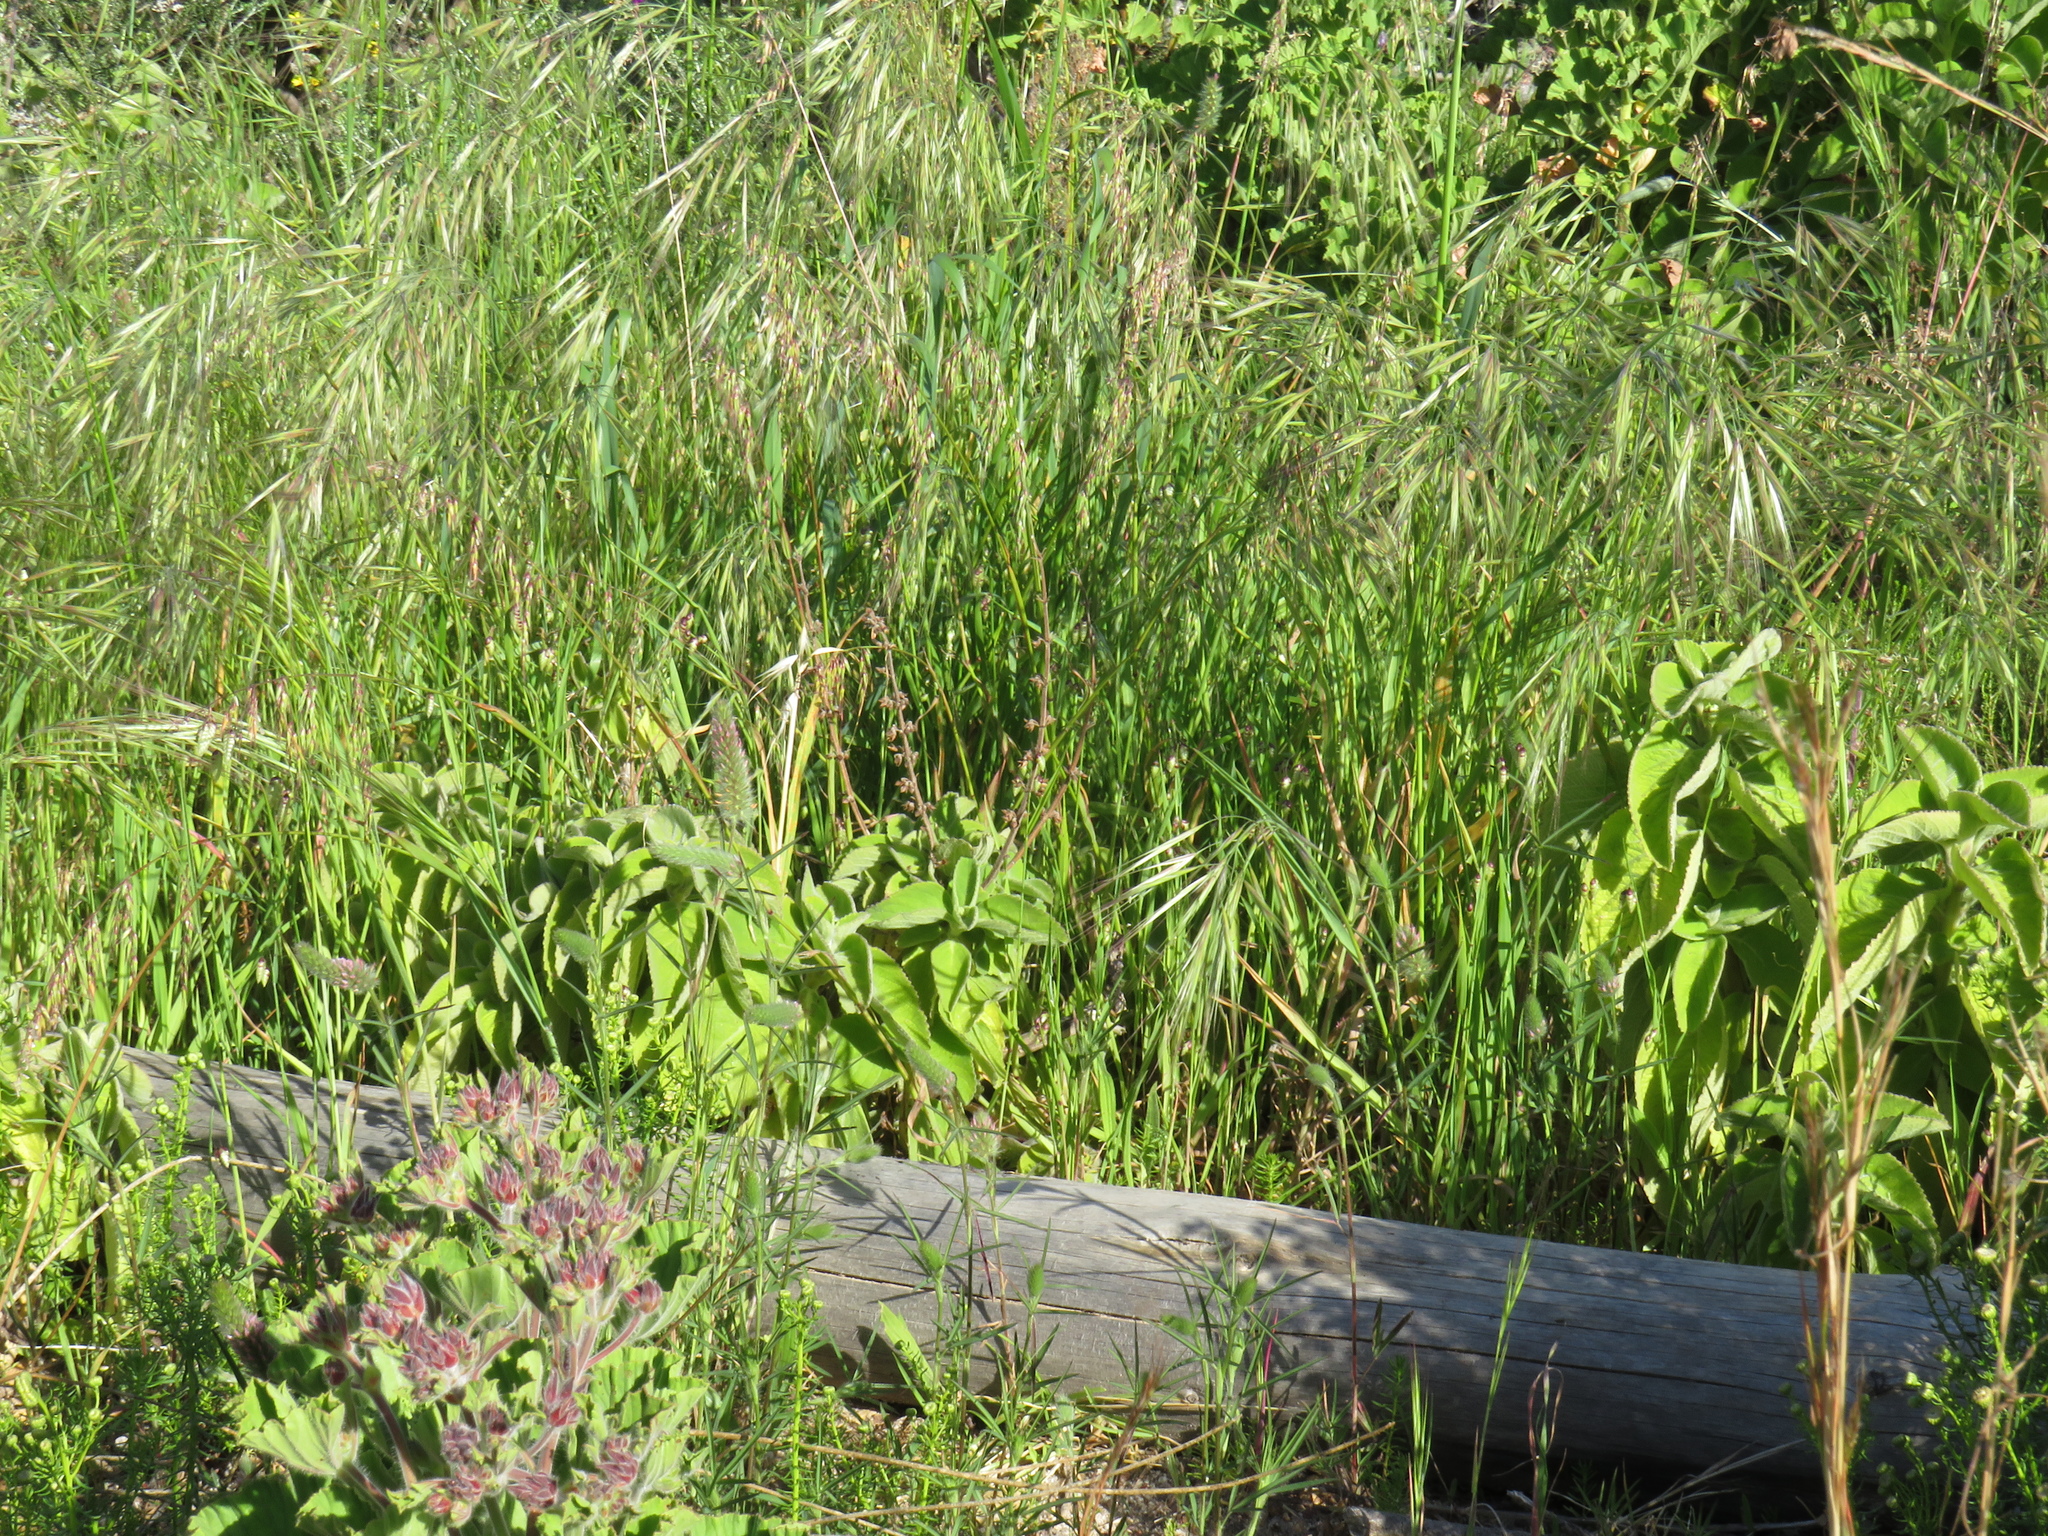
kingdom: Plantae
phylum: Tracheophyta
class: Magnoliopsida
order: Lamiales
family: Lamiaceae
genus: Coleus
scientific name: Coleus barbatus
